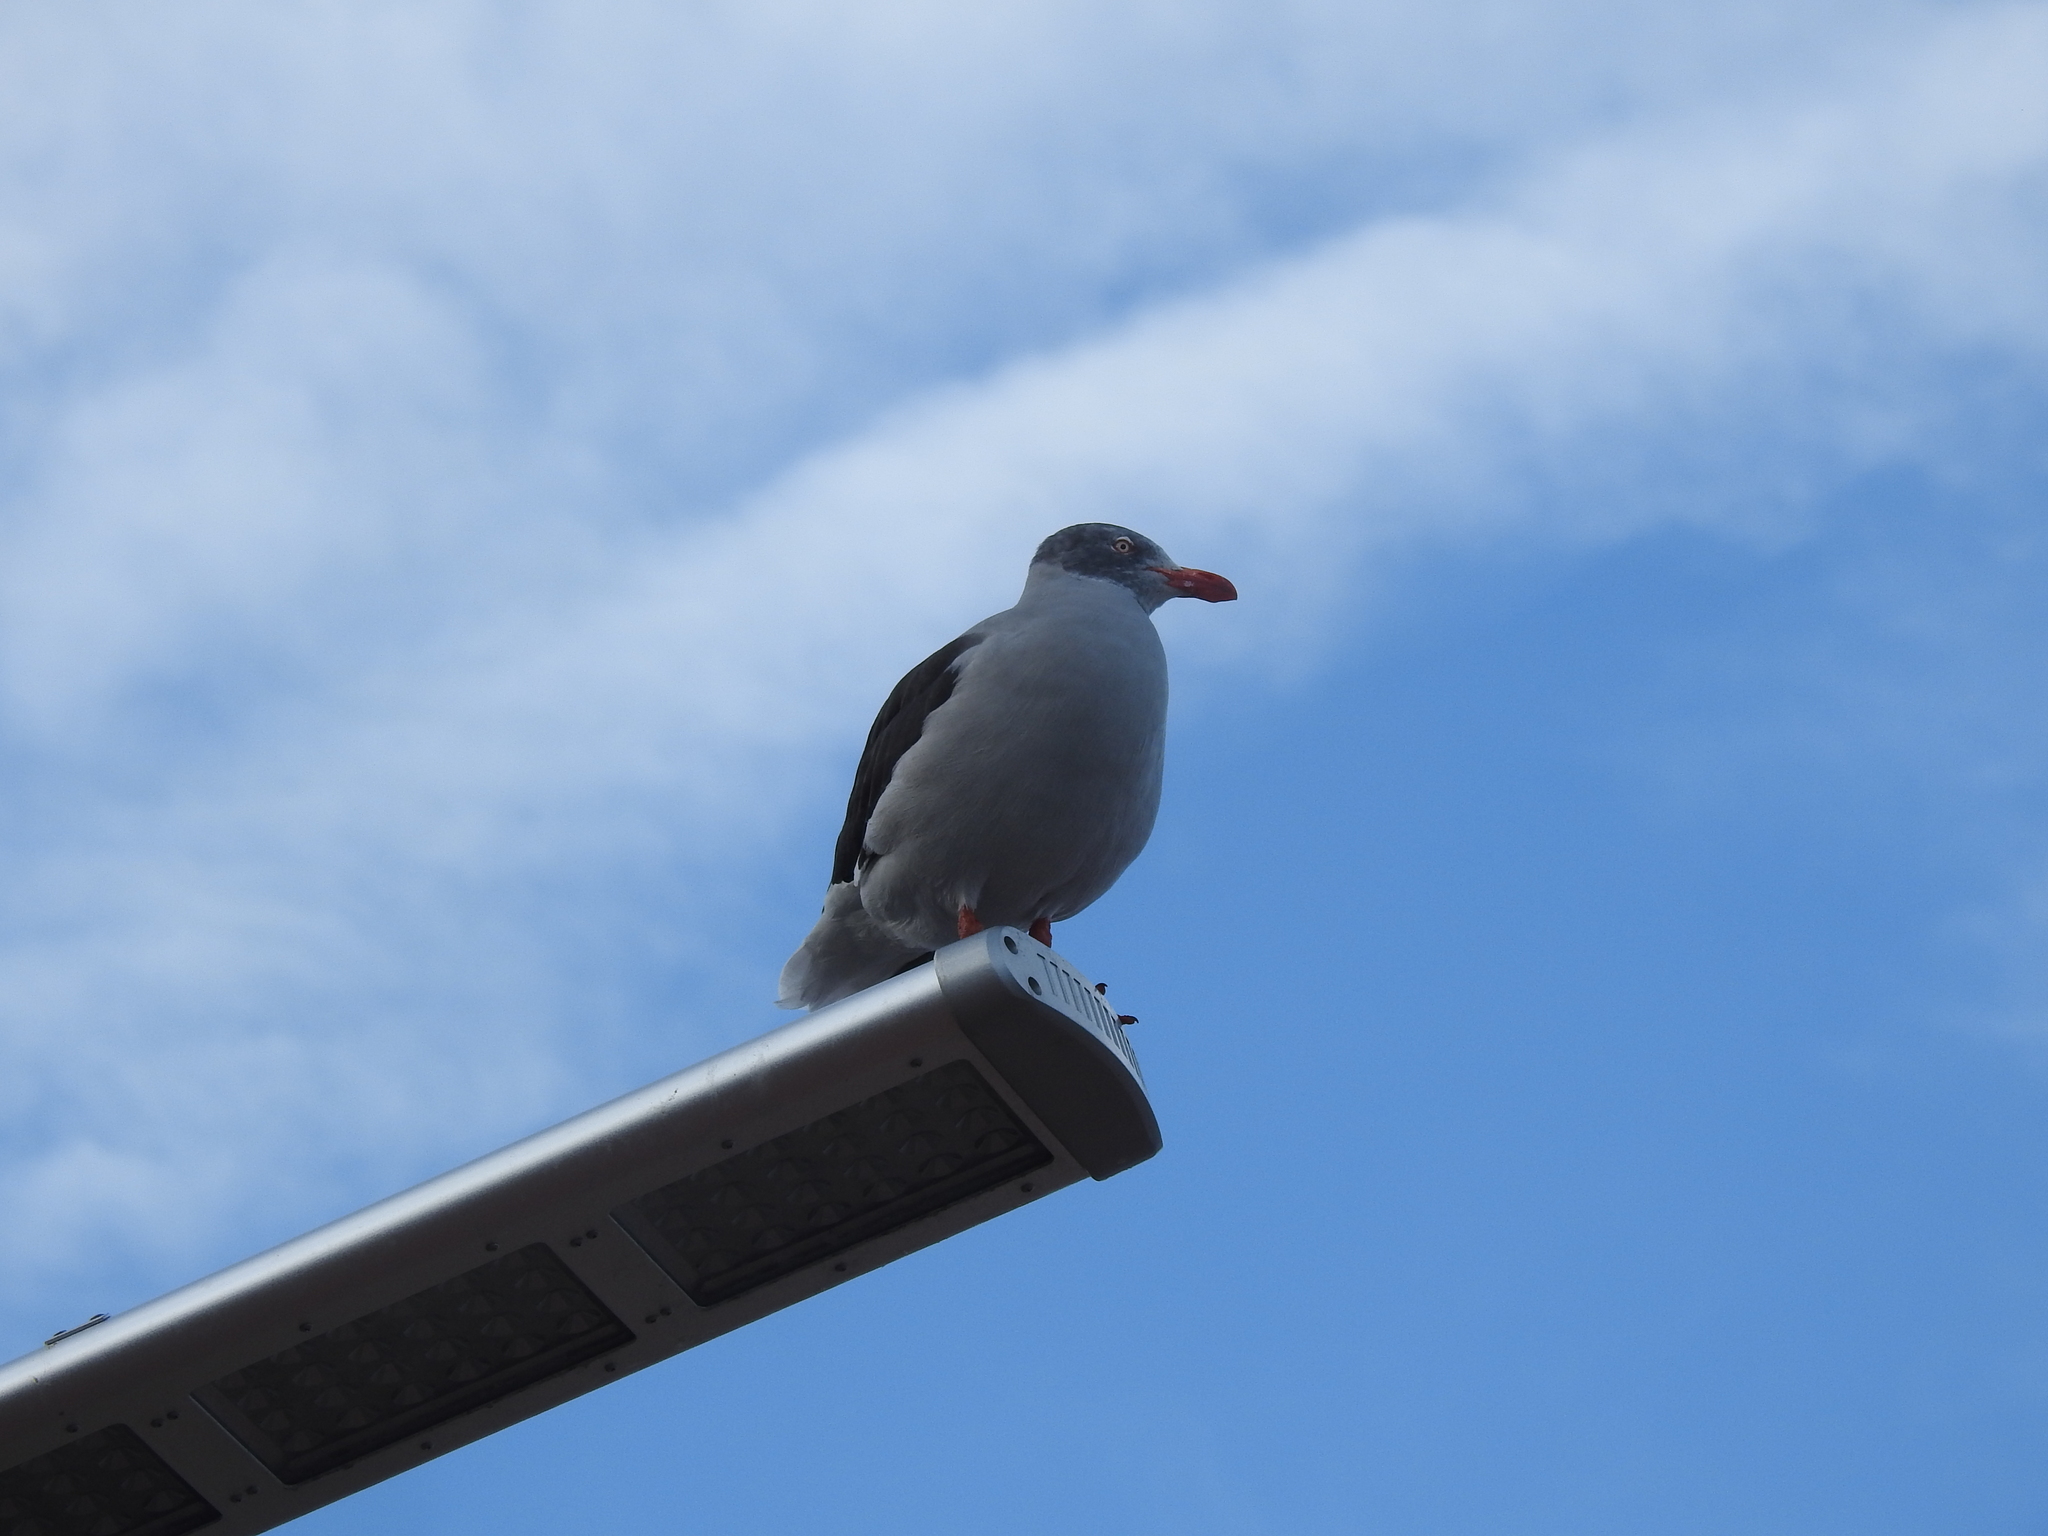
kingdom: Animalia
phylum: Chordata
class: Aves
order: Charadriiformes
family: Laridae
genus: Leucophaeus
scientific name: Leucophaeus scoresbii
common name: Dolphin gull
